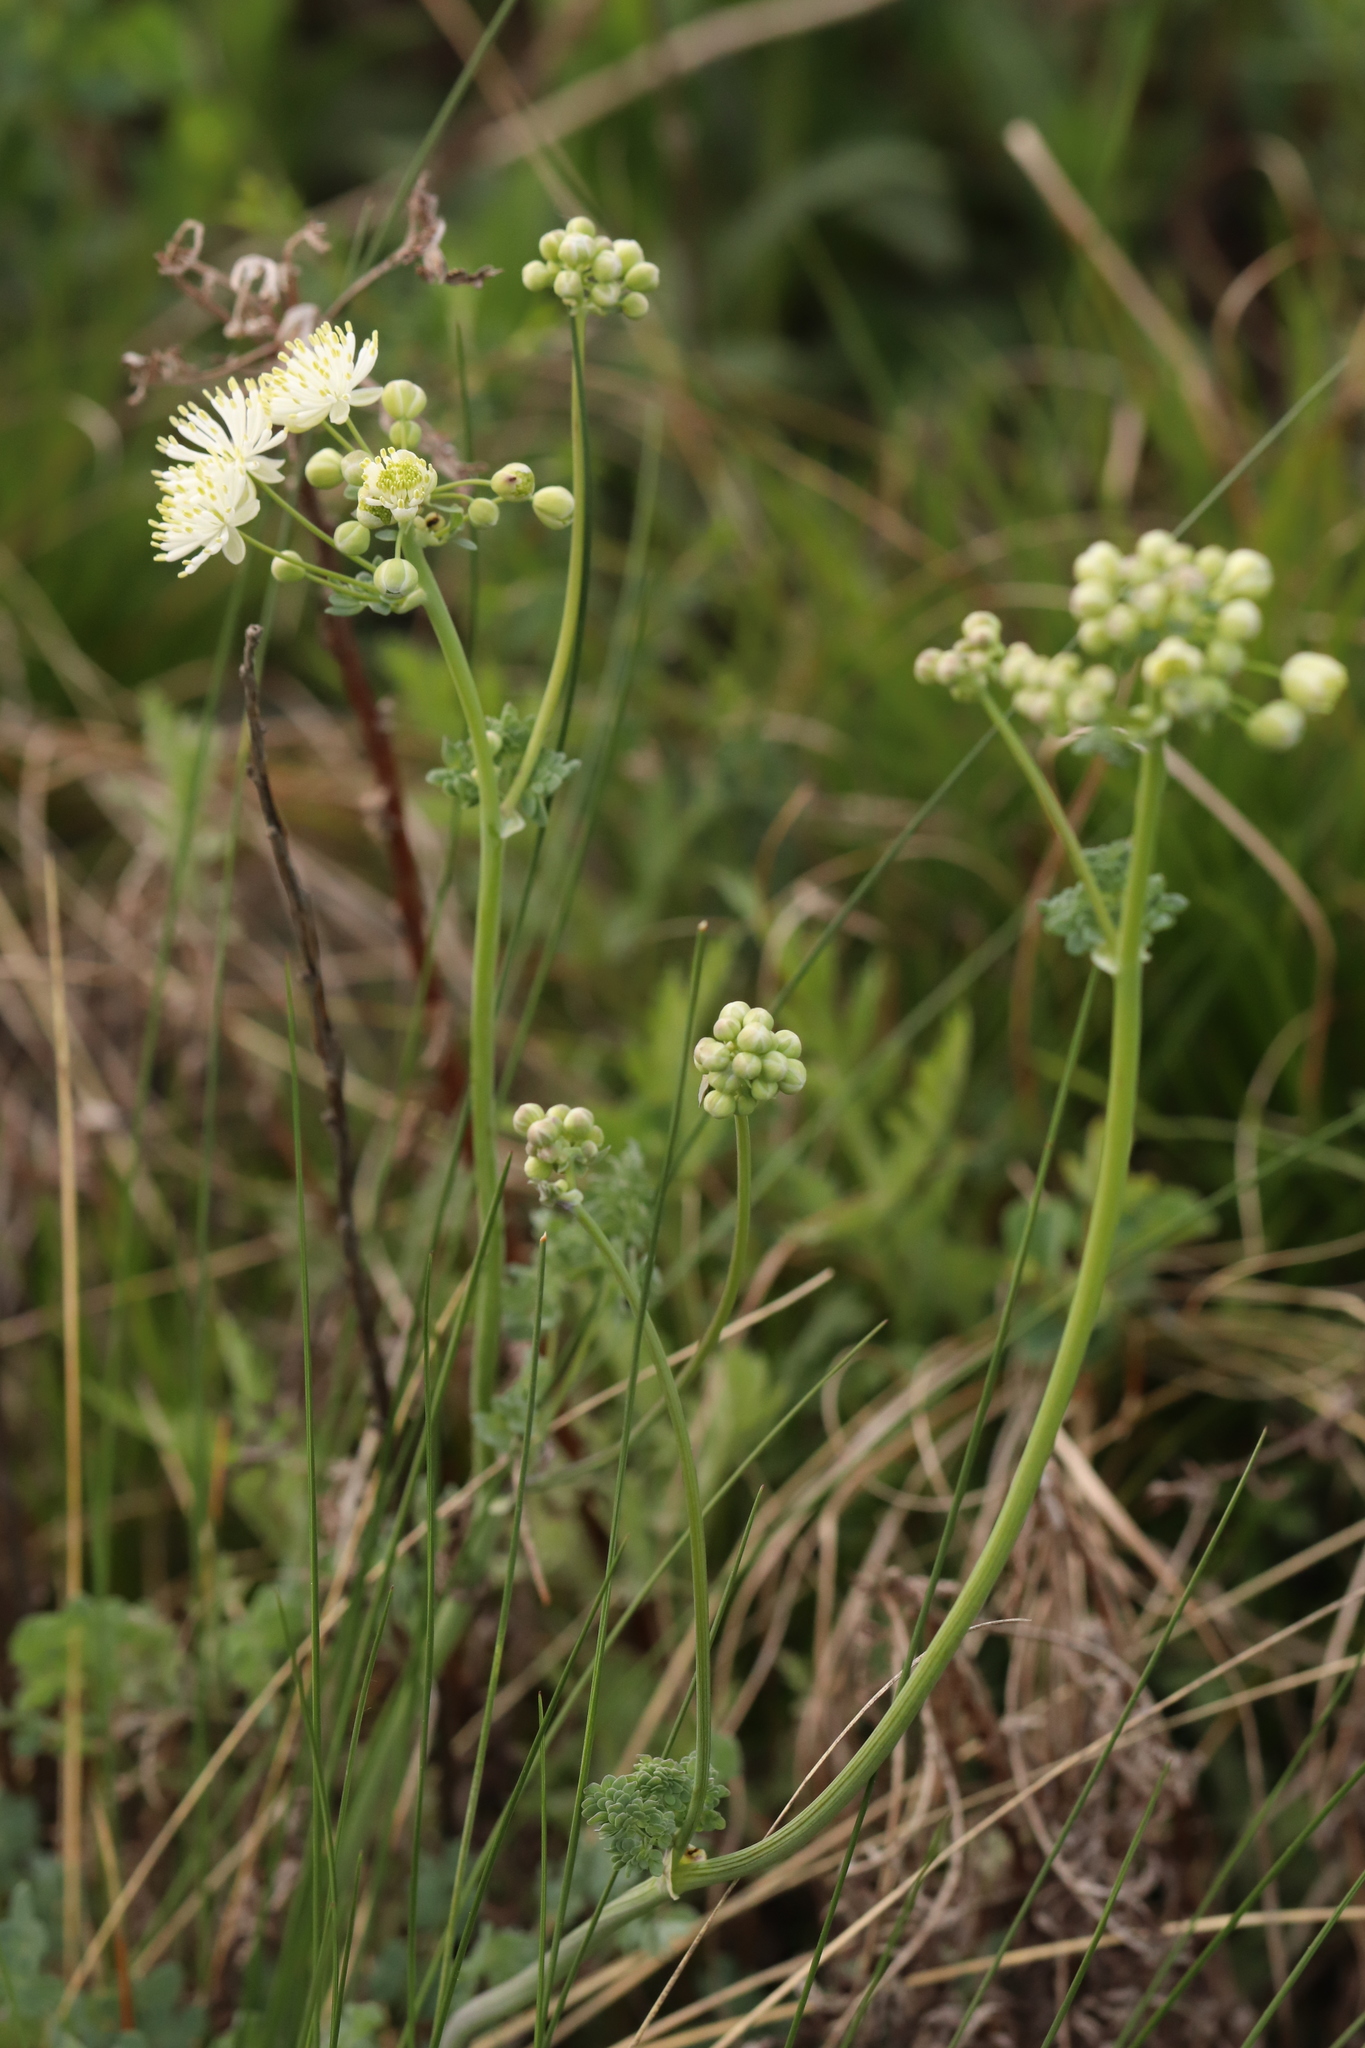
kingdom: Plantae
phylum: Tracheophyta
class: Magnoliopsida
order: Ranunculales
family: Ranunculaceae
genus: Thalictrum
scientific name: Thalictrum petaloideum
